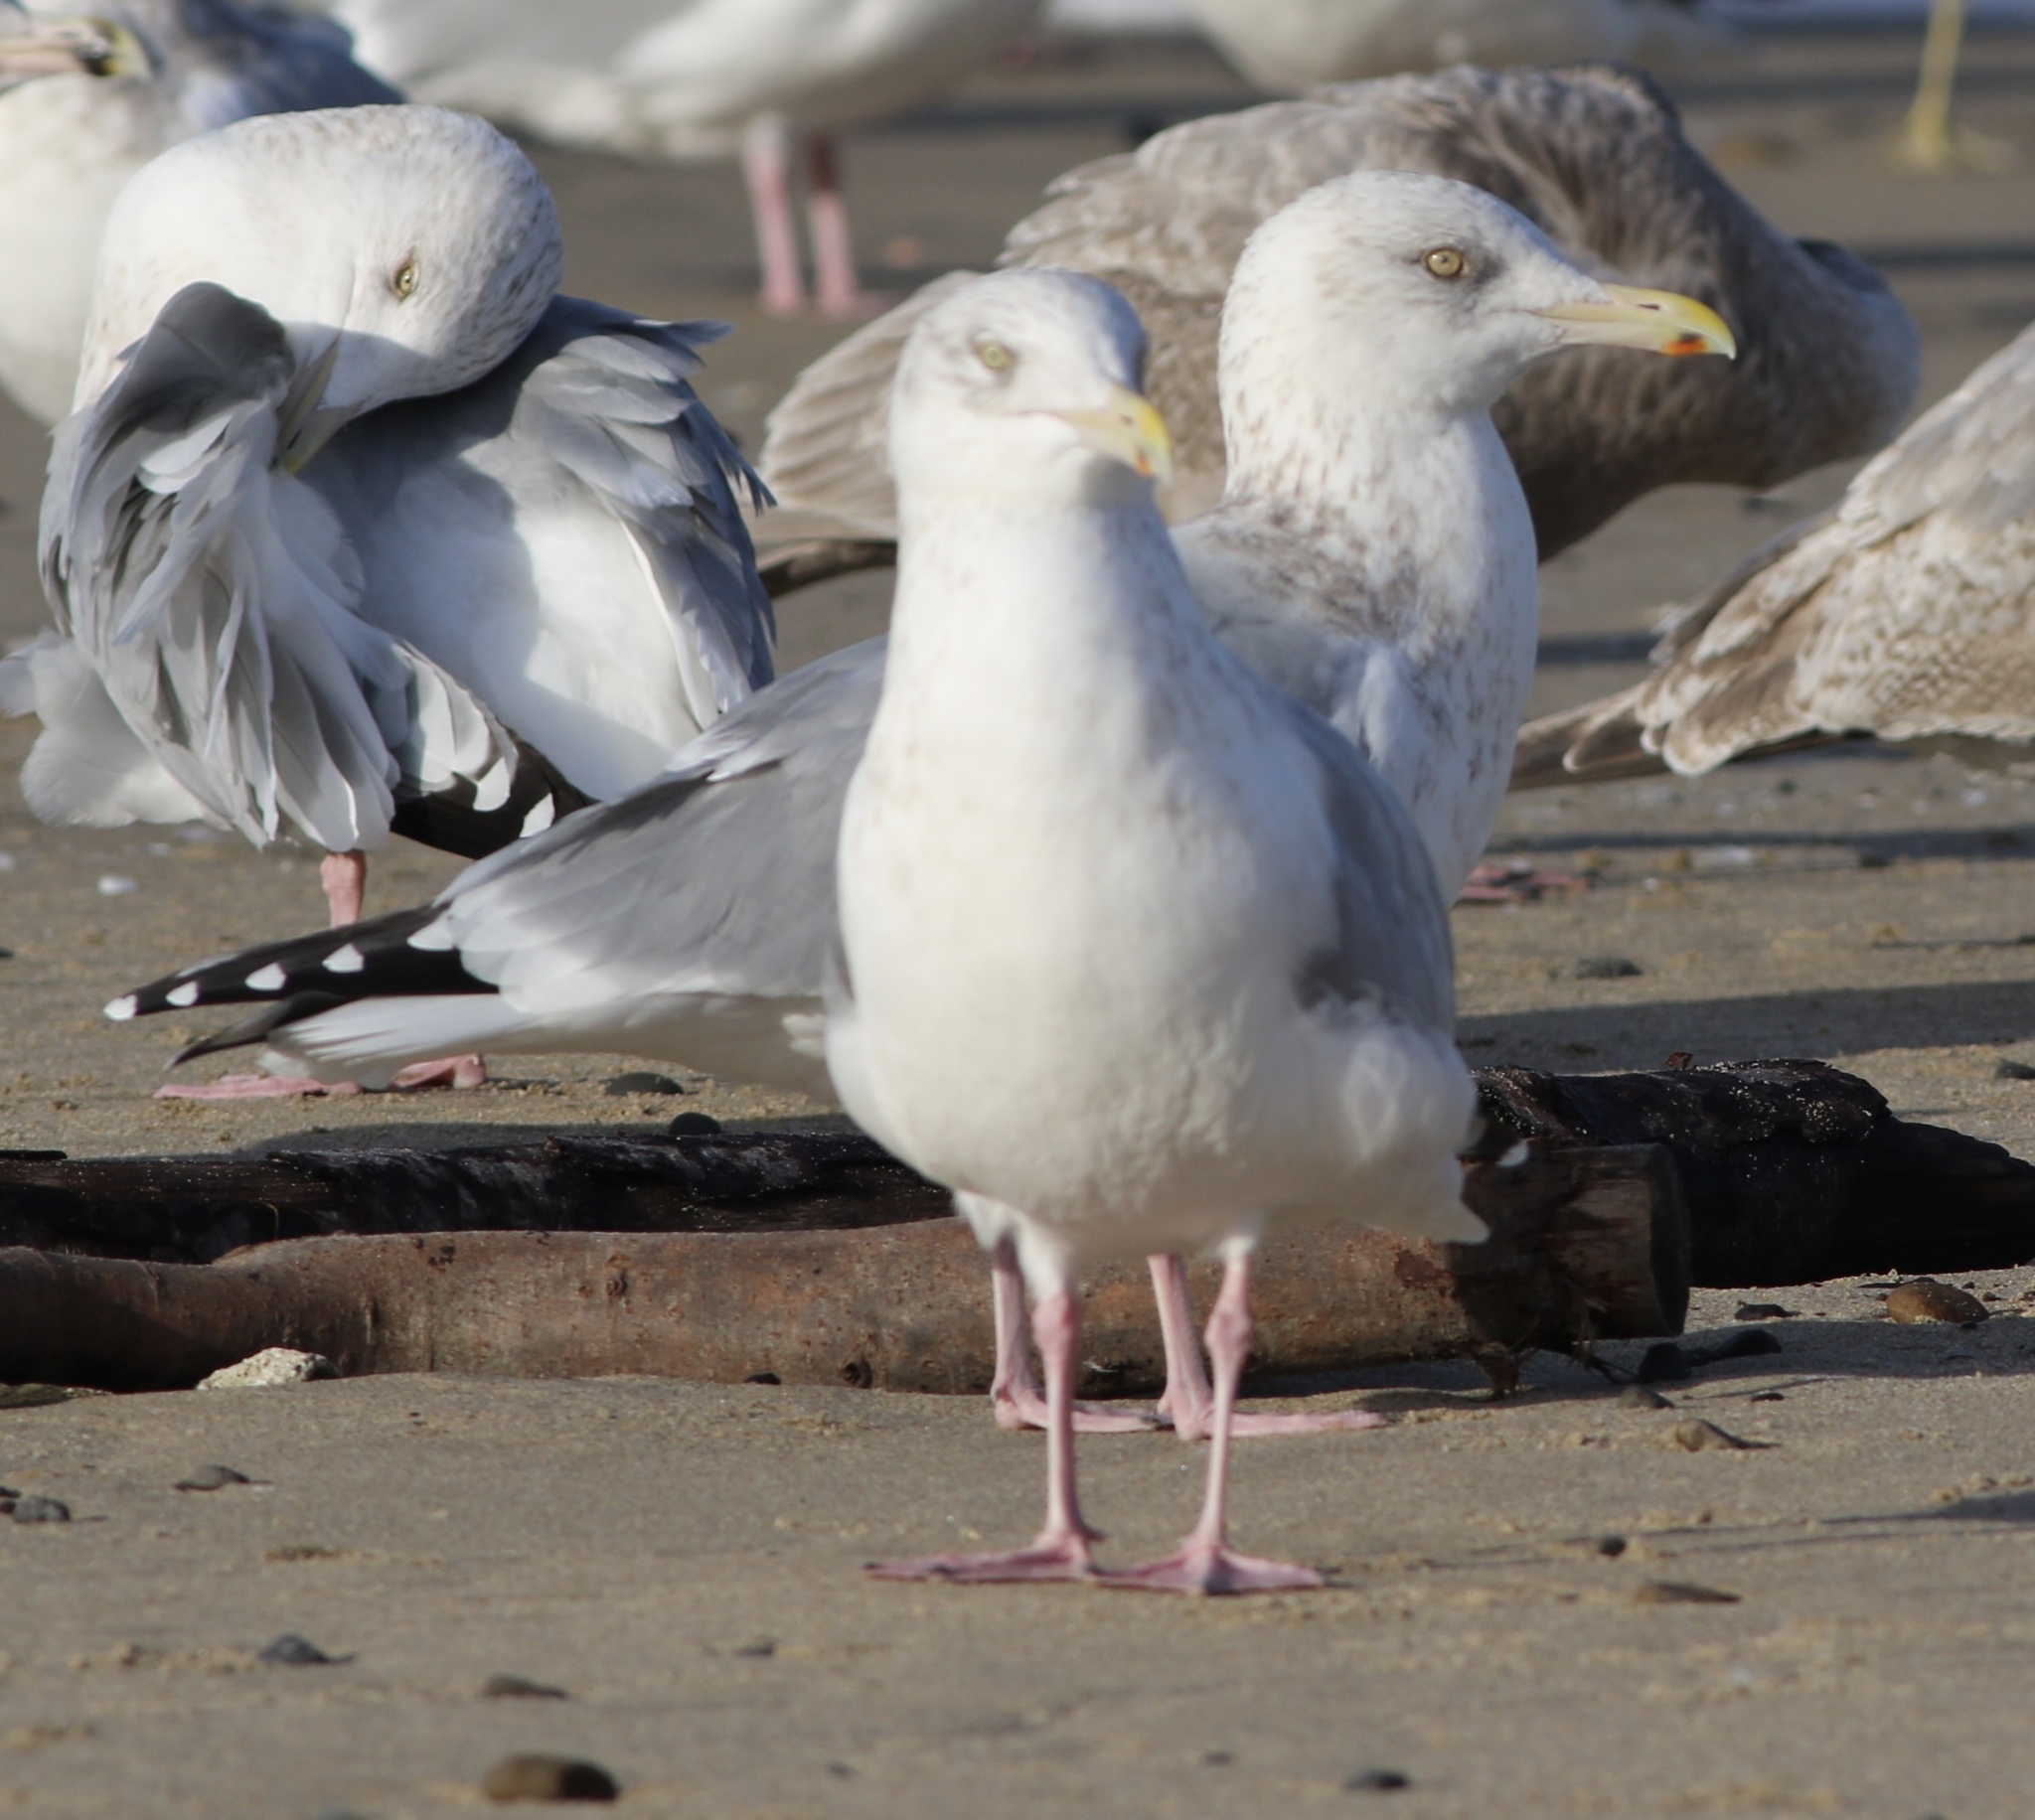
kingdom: Animalia
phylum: Chordata
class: Aves
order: Charadriiformes
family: Laridae
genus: Larus
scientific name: Larus argentatus
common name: Herring gull
